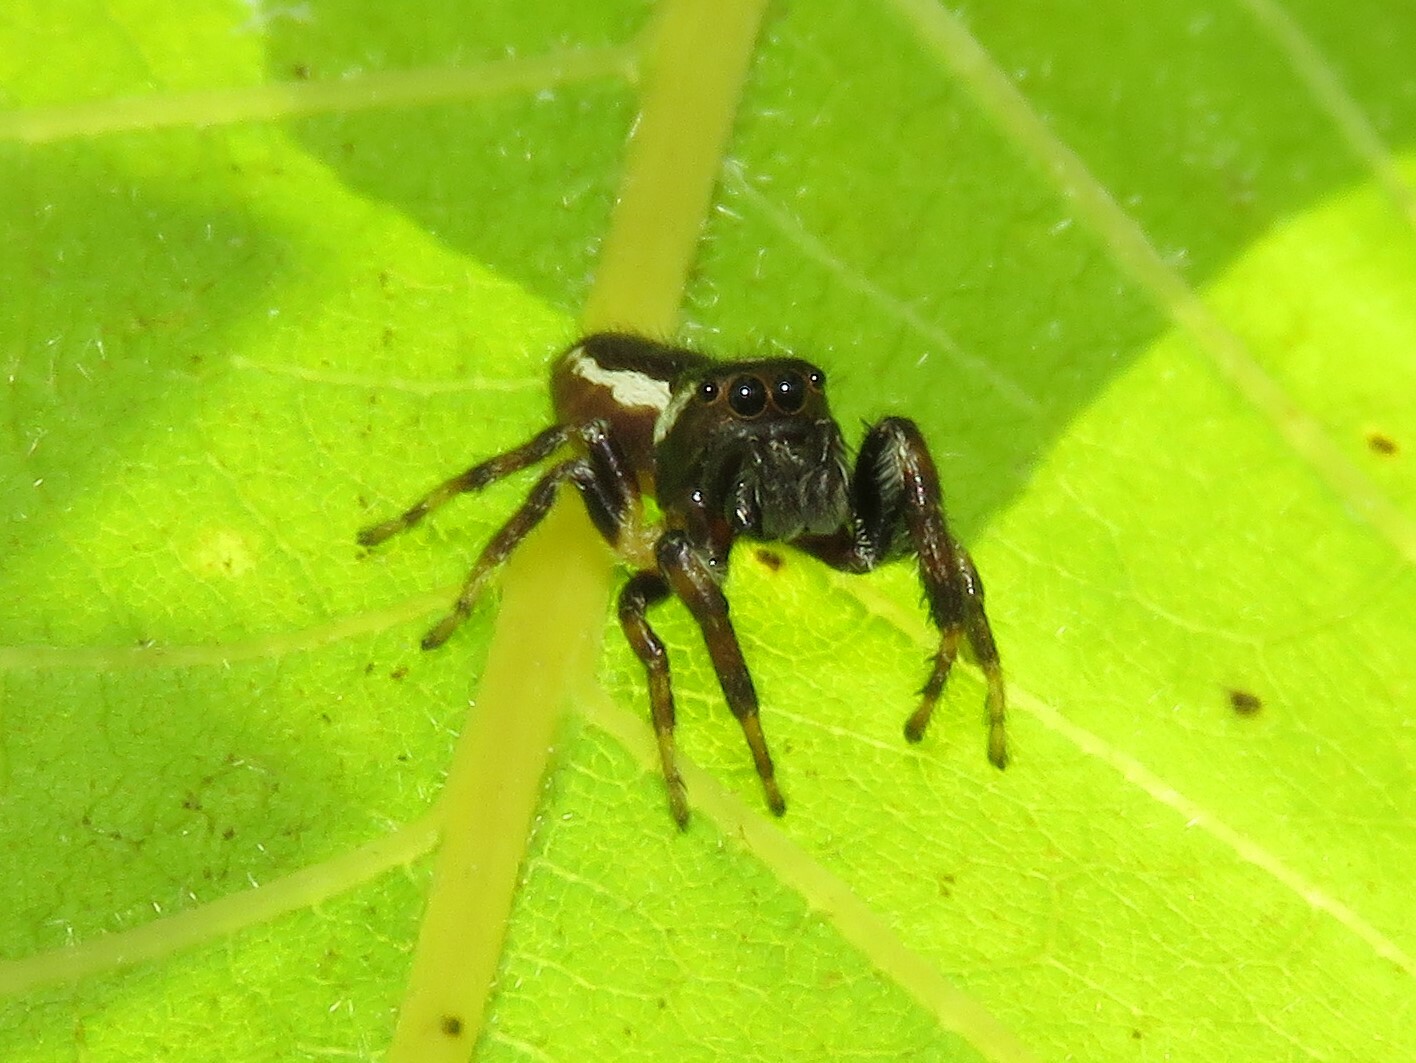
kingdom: Animalia
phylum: Arthropoda
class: Arachnida
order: Araneae
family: Salticidae
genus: Eris
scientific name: Eris militaris
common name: Bronze jumper
